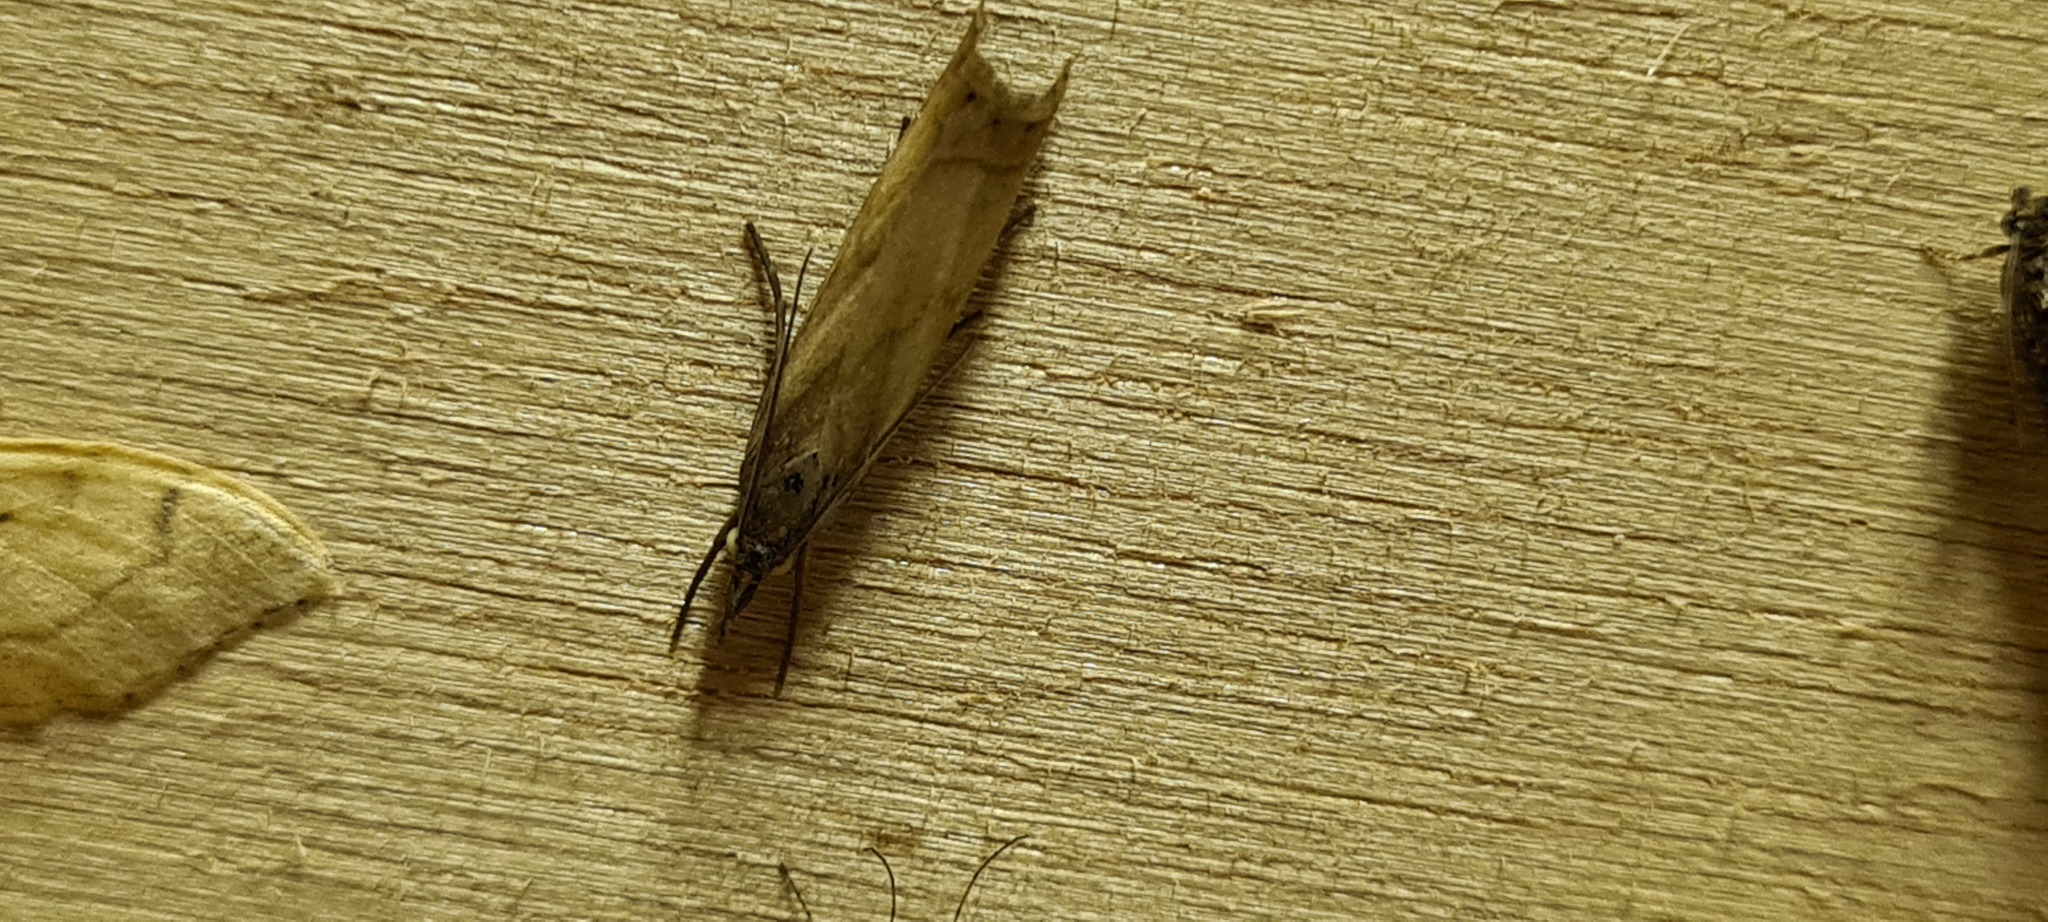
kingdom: Animalia
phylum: Arthropoda
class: Insecta
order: Lepidoptera
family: Crambidae
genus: Chrysoteuchia
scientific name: Chrysoteuchia culmella
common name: Garden grass-veneer
